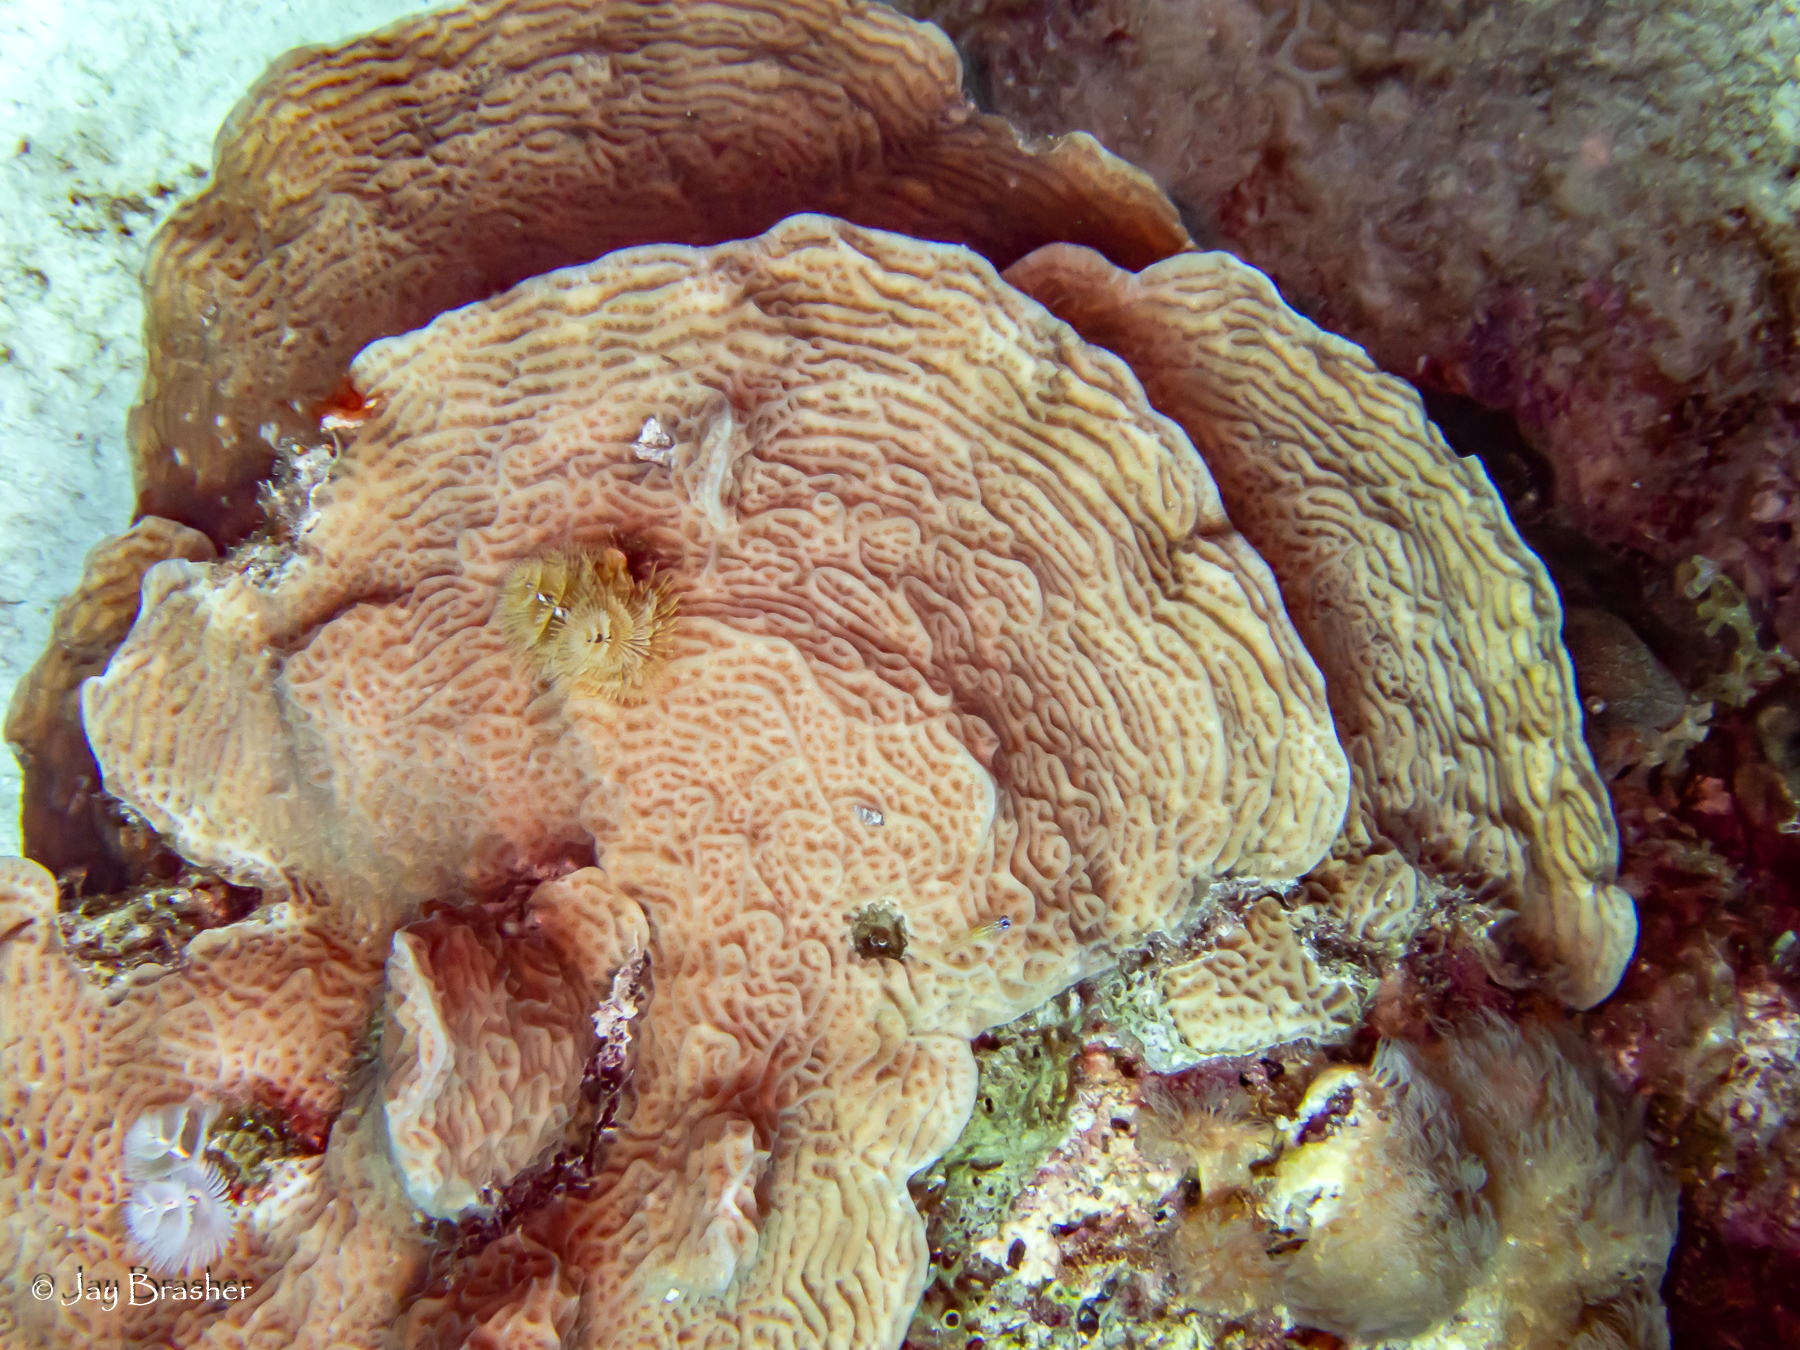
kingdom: Animalia
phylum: Cnidaria
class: Anthozoa
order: Scleractinia
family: Agariciidae
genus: Agaricia
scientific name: Agaricia agaricites
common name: Lettuce coral
